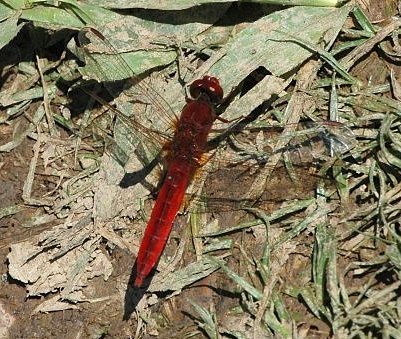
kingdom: Animalia
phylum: Arthropoda
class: Insecta
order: Odonata
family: Libellulidae
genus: Crocothemis
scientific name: Crocothemis erythraea
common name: Scarlet dragonfly
